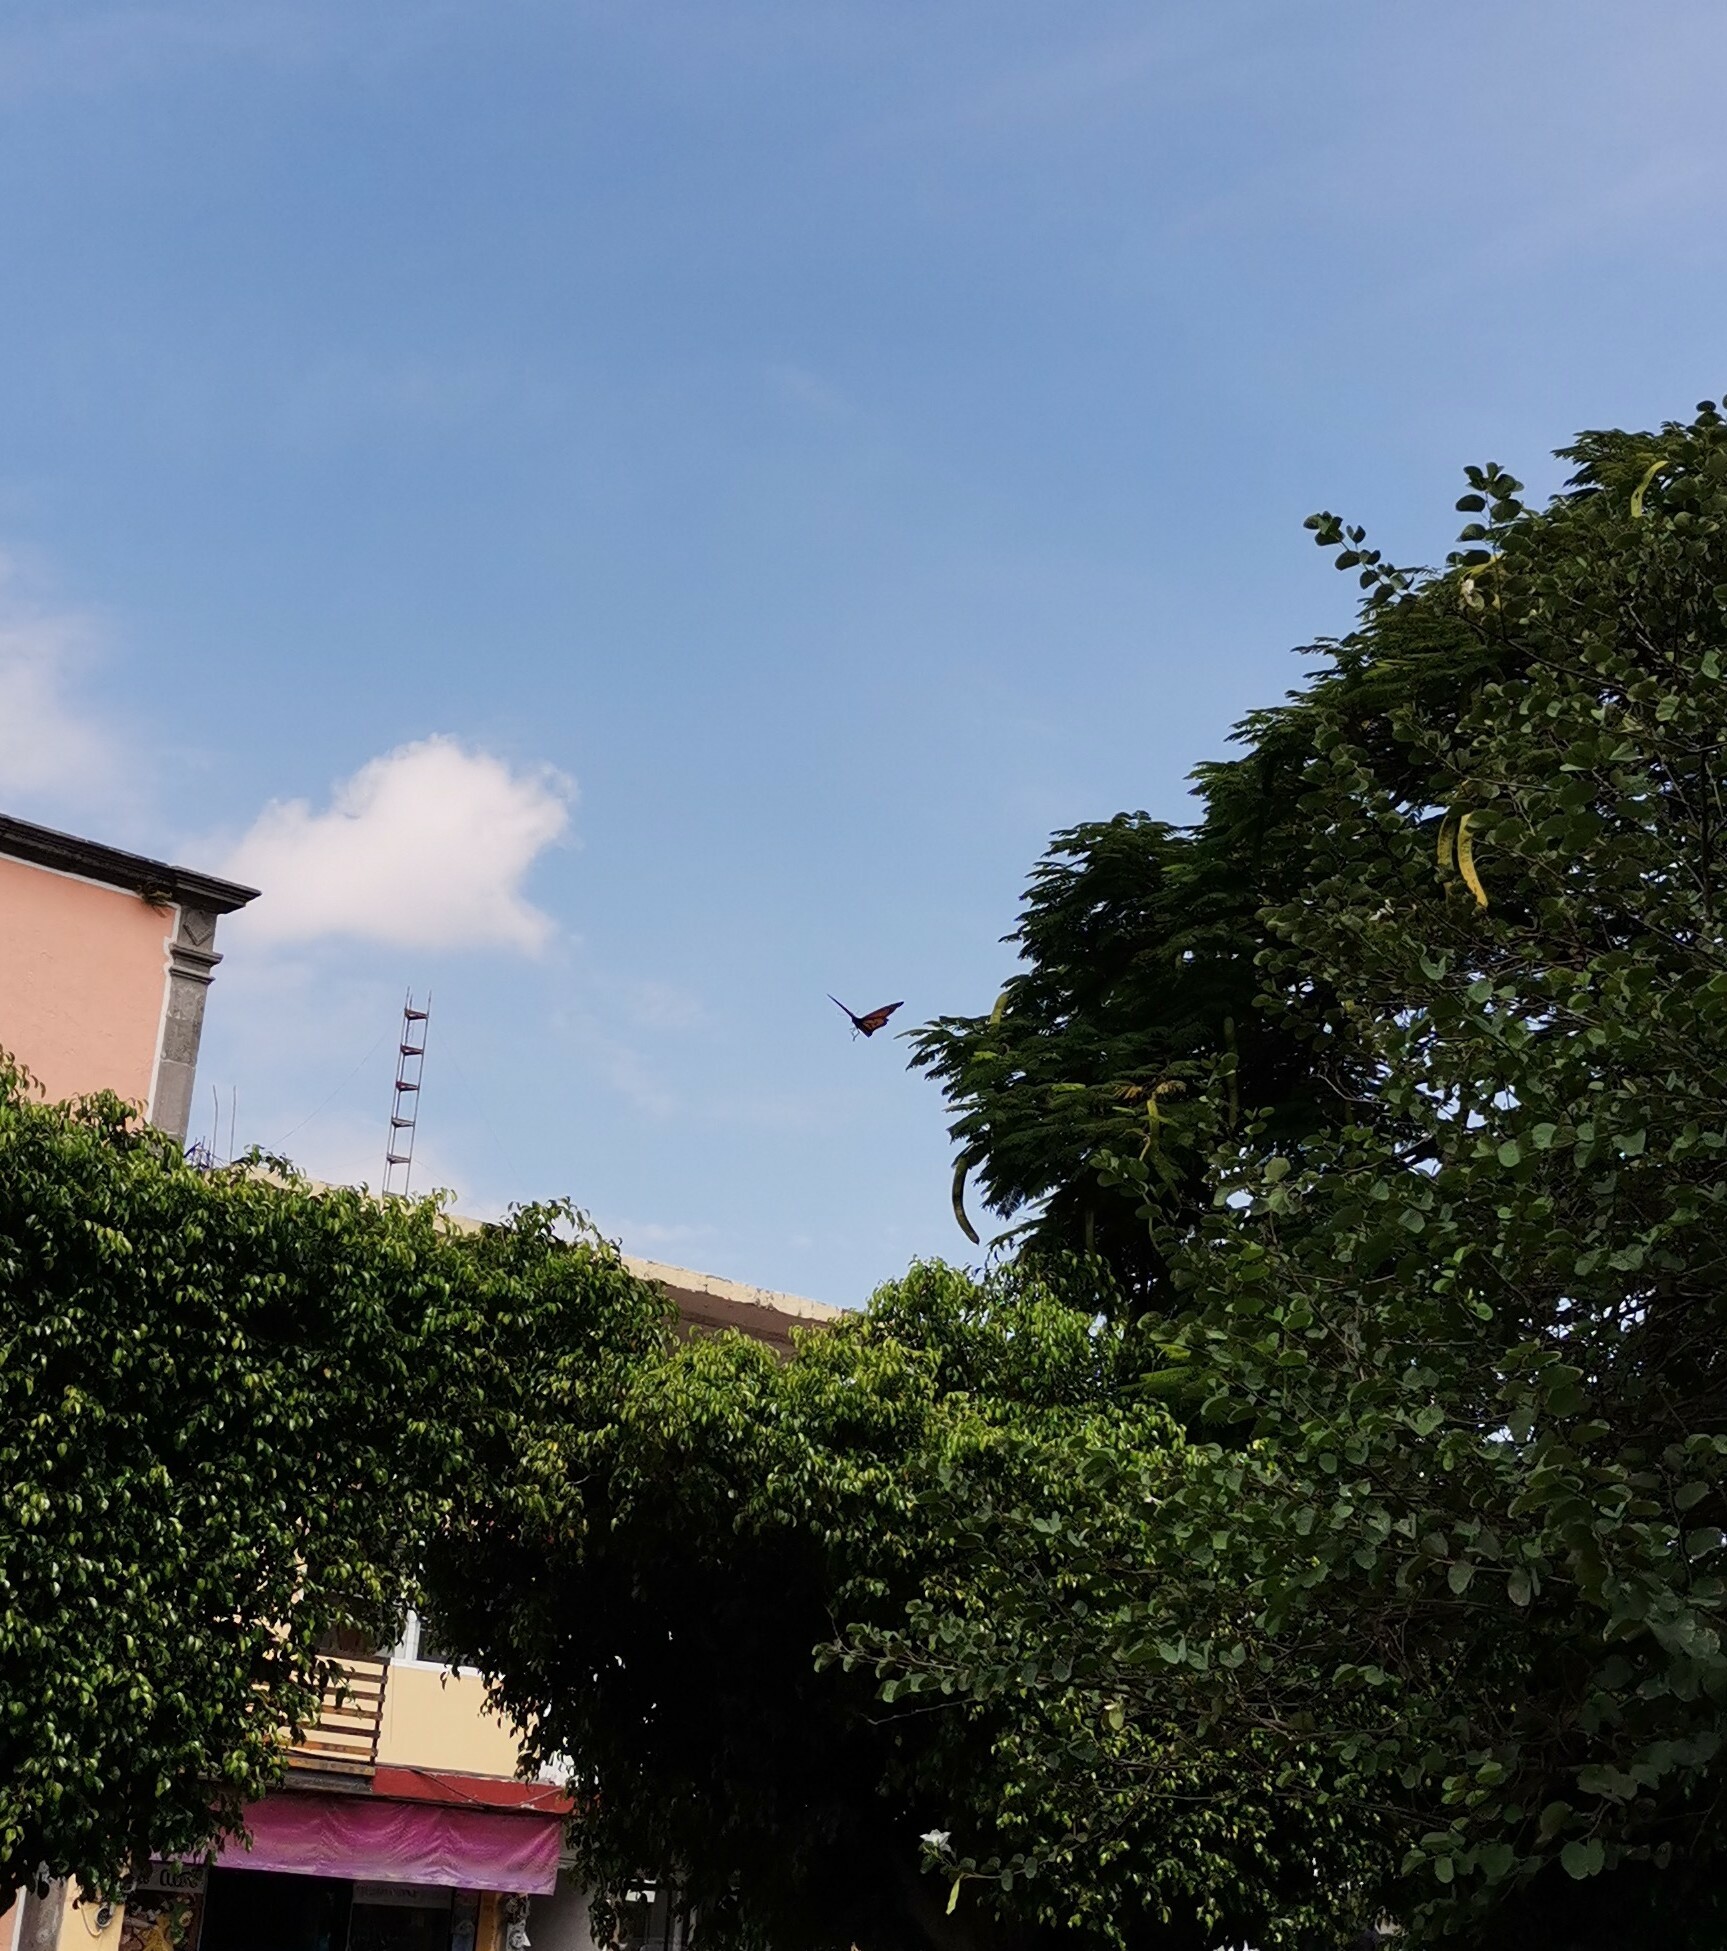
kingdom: Animalia
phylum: Arthropoda
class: Insecta
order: Lepidoptera
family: Nymphalidae
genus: Danaus
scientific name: Danaus plexippus
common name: Monarch
